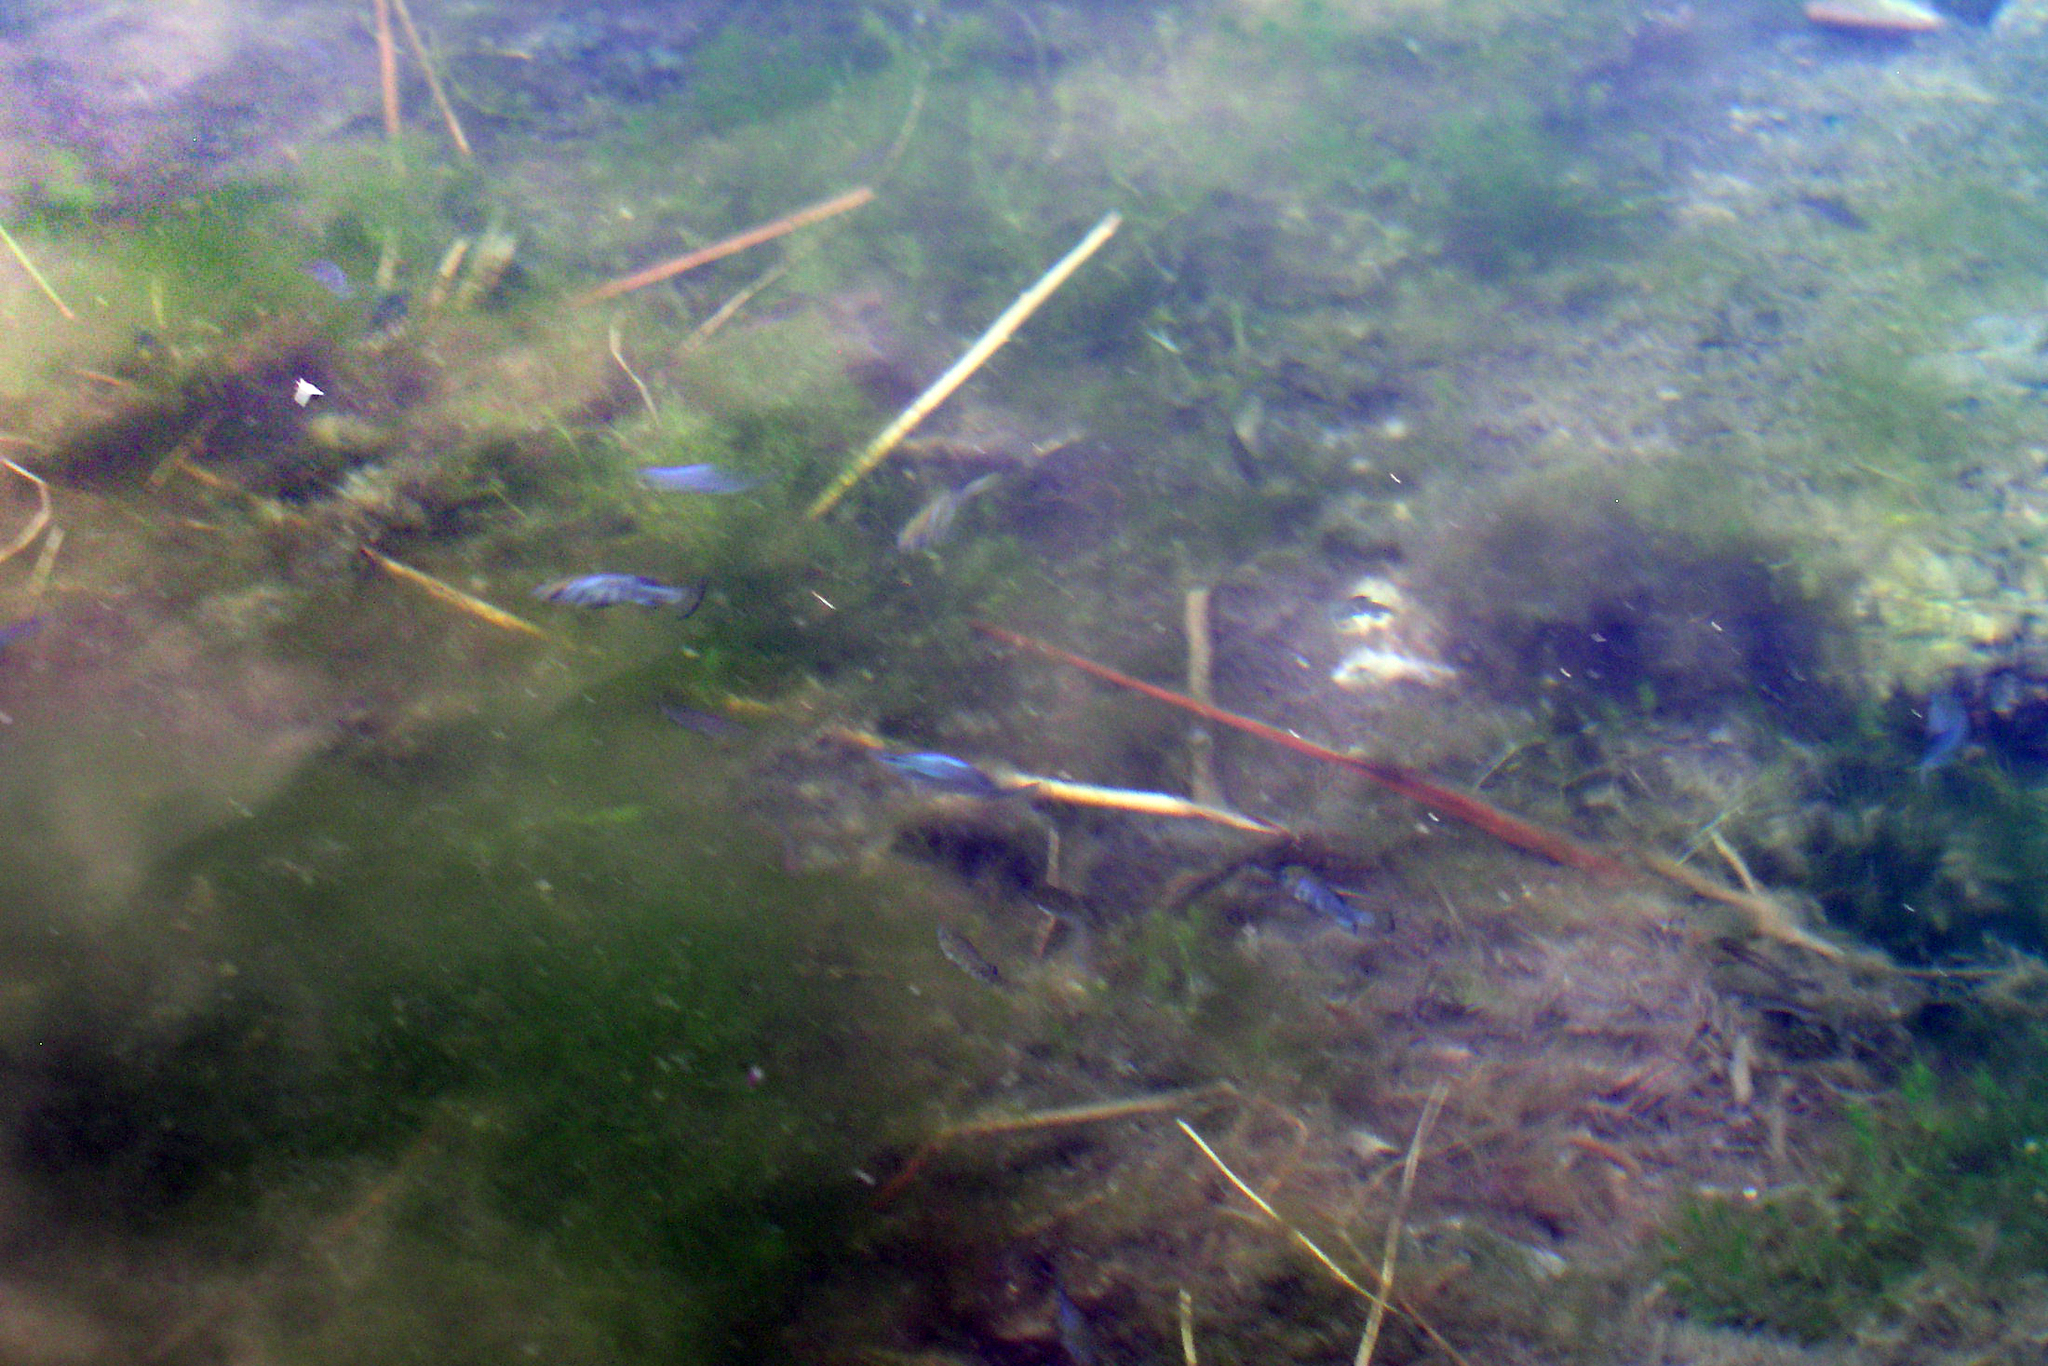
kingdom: Animalia
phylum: Chordata
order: Cyprinodontiformes
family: Cyprinodontidae
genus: Cyprinodon
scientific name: Cyprinodon nevadensis
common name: Amargosa pupfish
